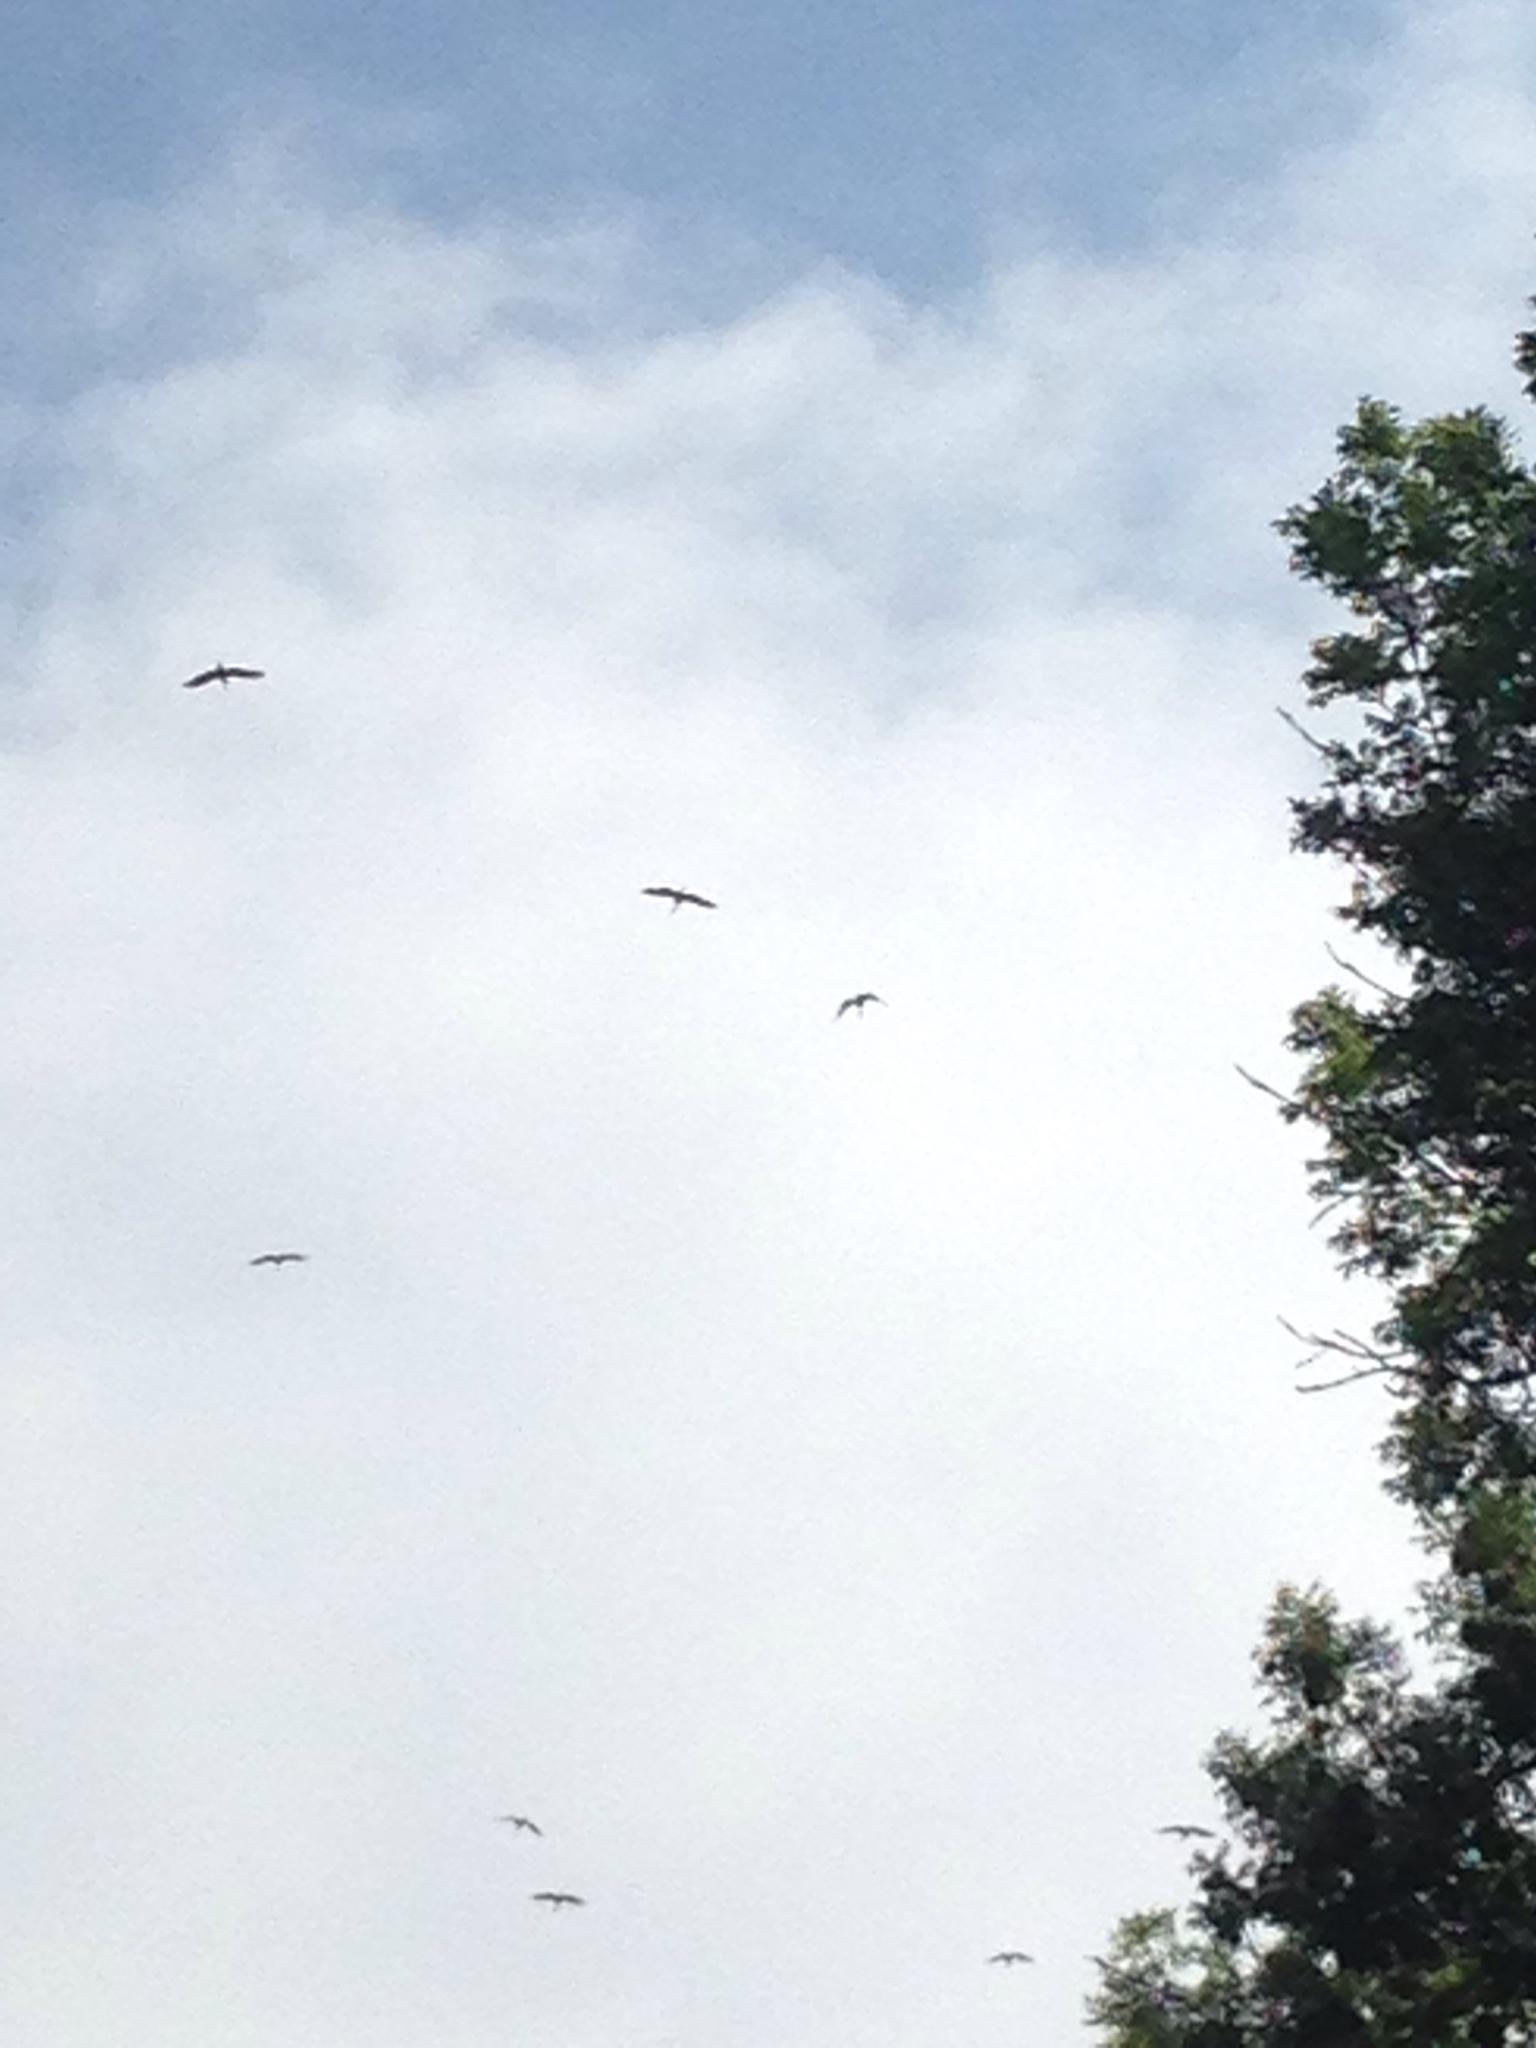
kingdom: Animalia
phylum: Chordata
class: Aves
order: Ciconiiformes
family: Ciconiidae
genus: Ciconia
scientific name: Ciconia ciconia
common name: White stork
